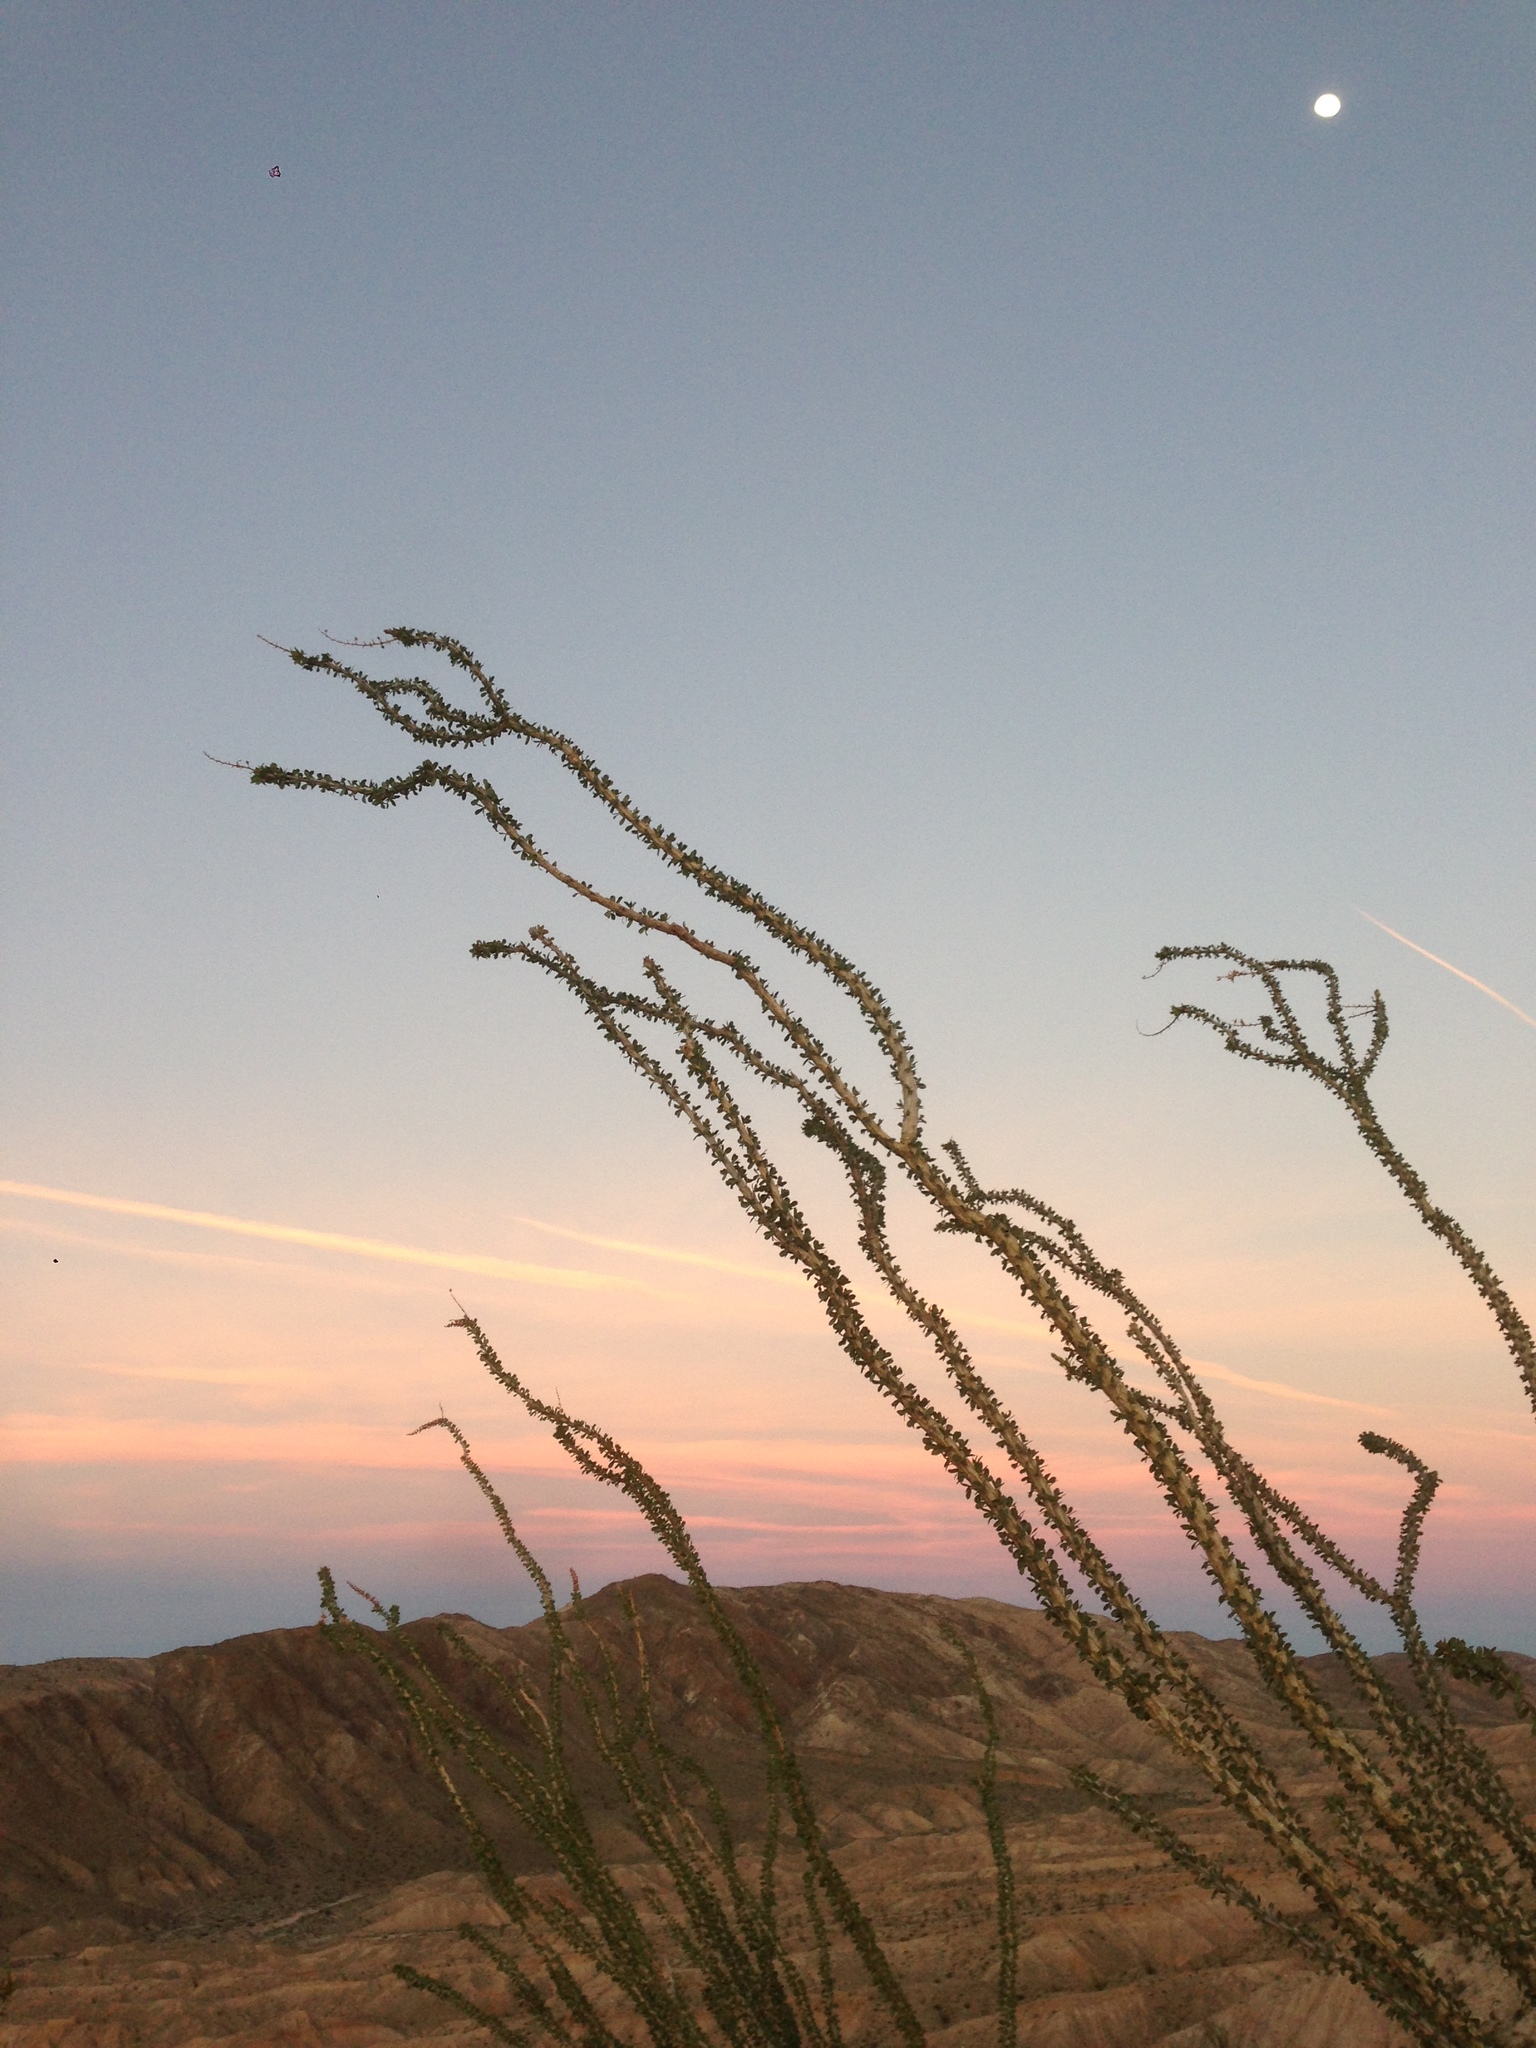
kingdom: Plantae
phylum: Tracheophyta
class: Magnoliopsida
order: Ericales
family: Fouquieriaceae
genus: Fouquieria
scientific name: Fouquieria splendens
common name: Vine-cactus
